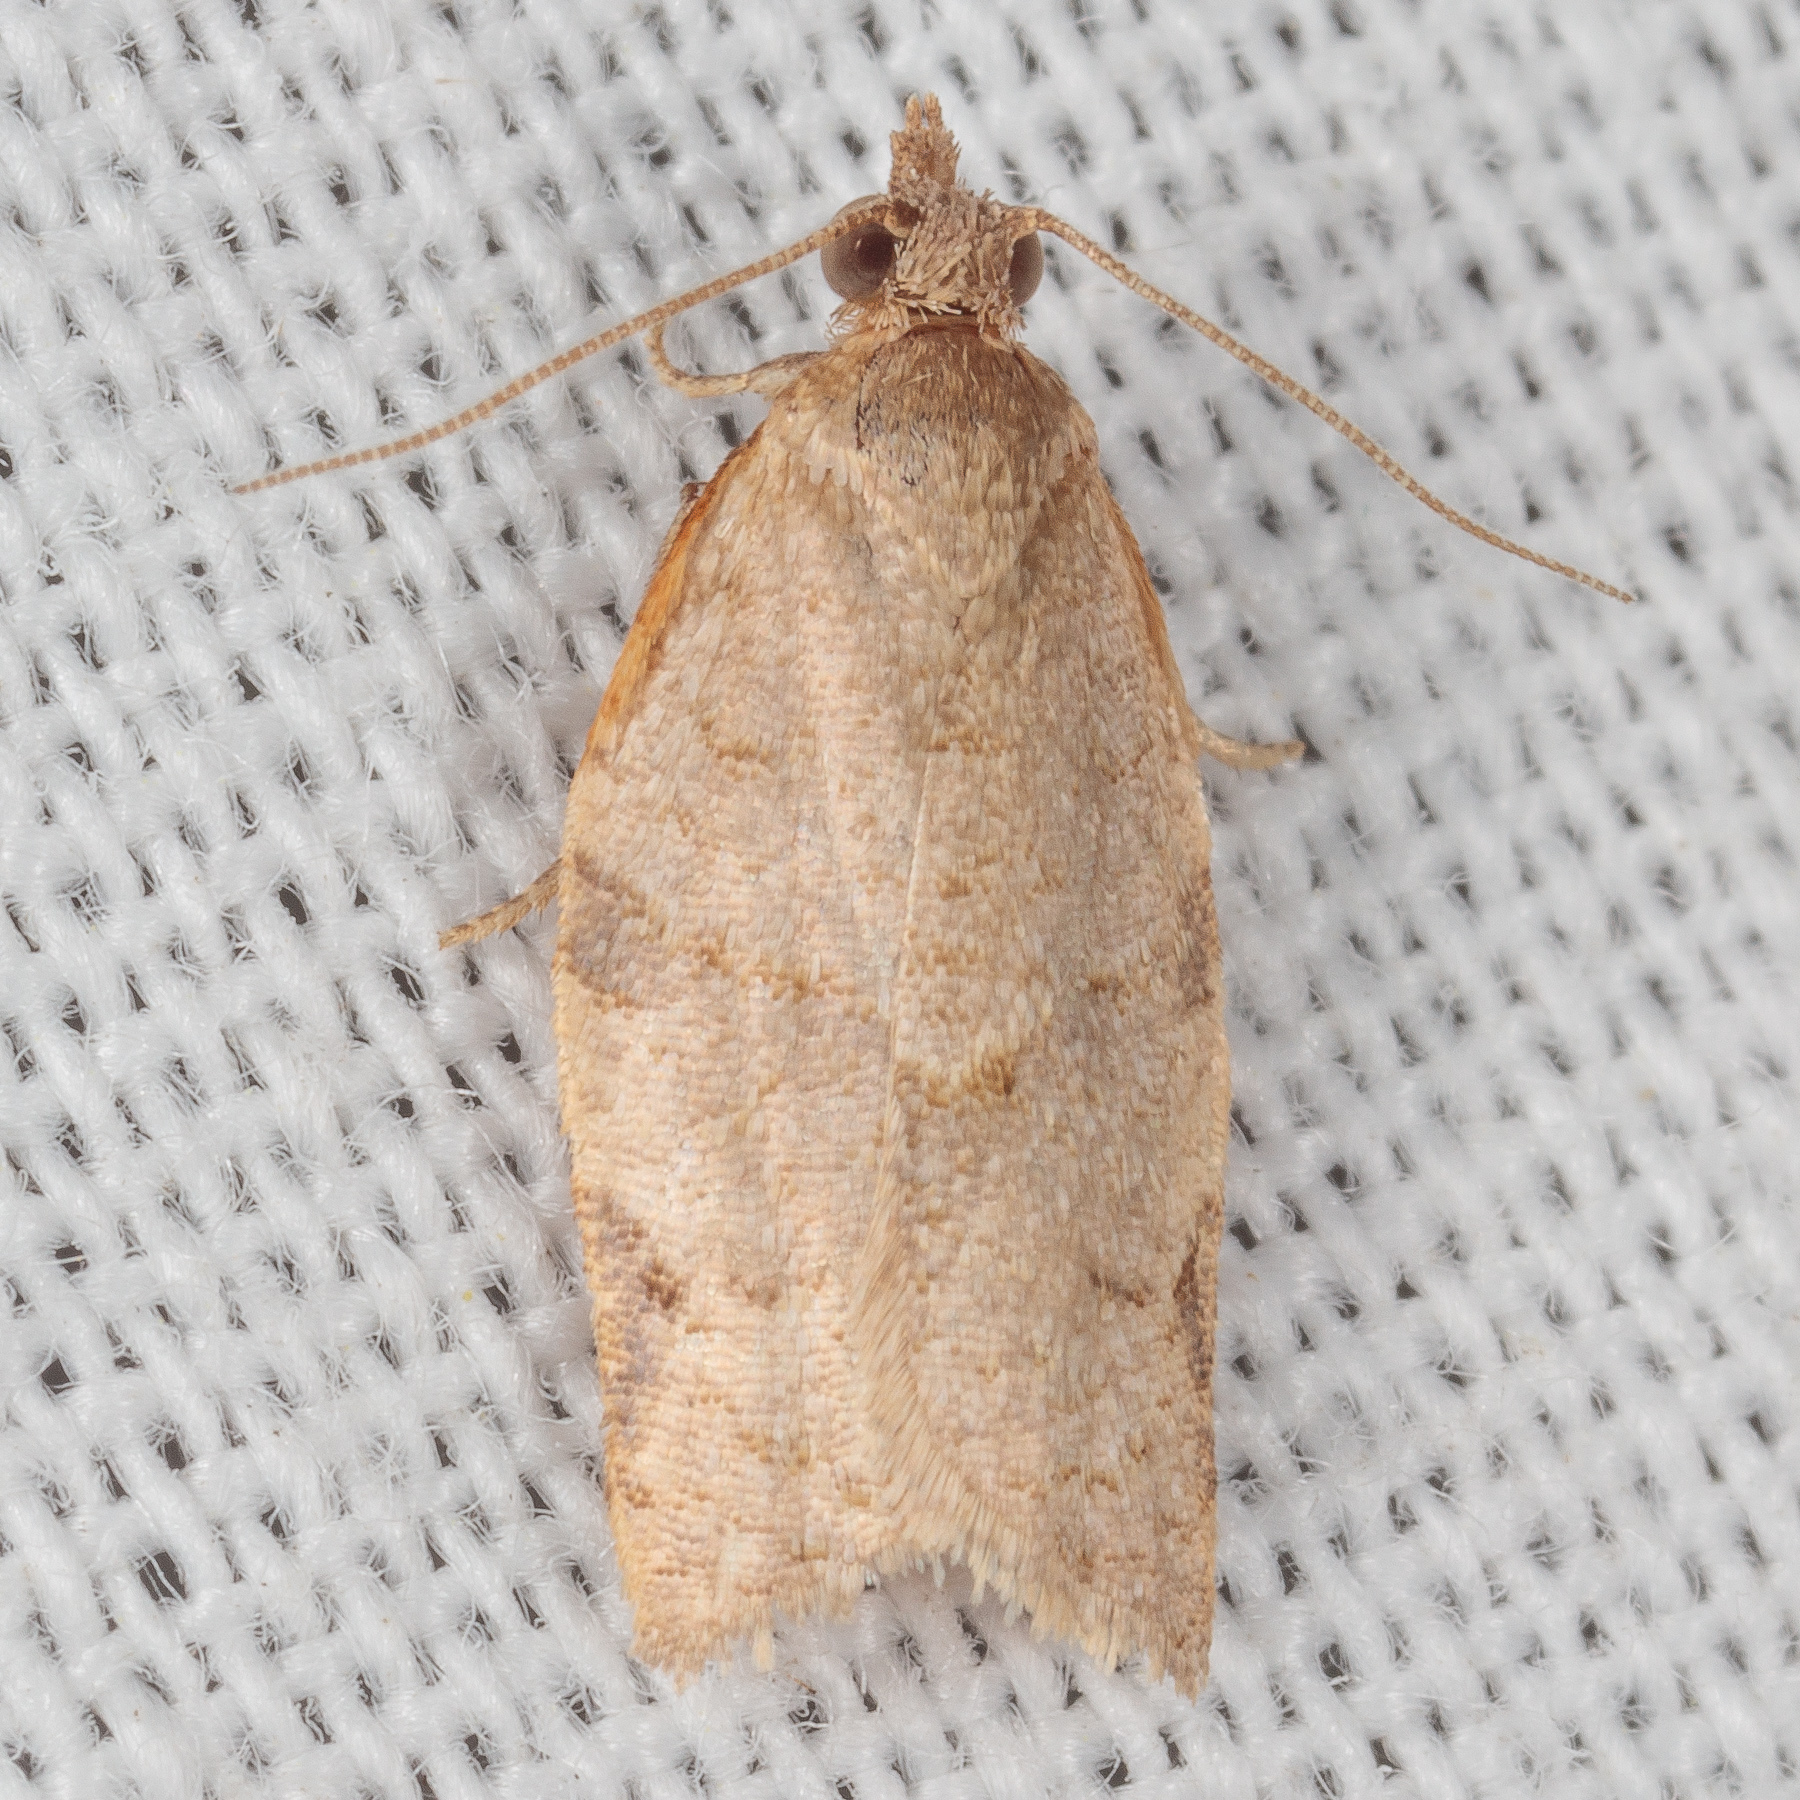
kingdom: Animalia
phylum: Arthropoda
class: Insecta
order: Lepidoptera
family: Tortricidae
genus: Clepsis
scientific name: Clepsis virescana
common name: Greenish apple moth
